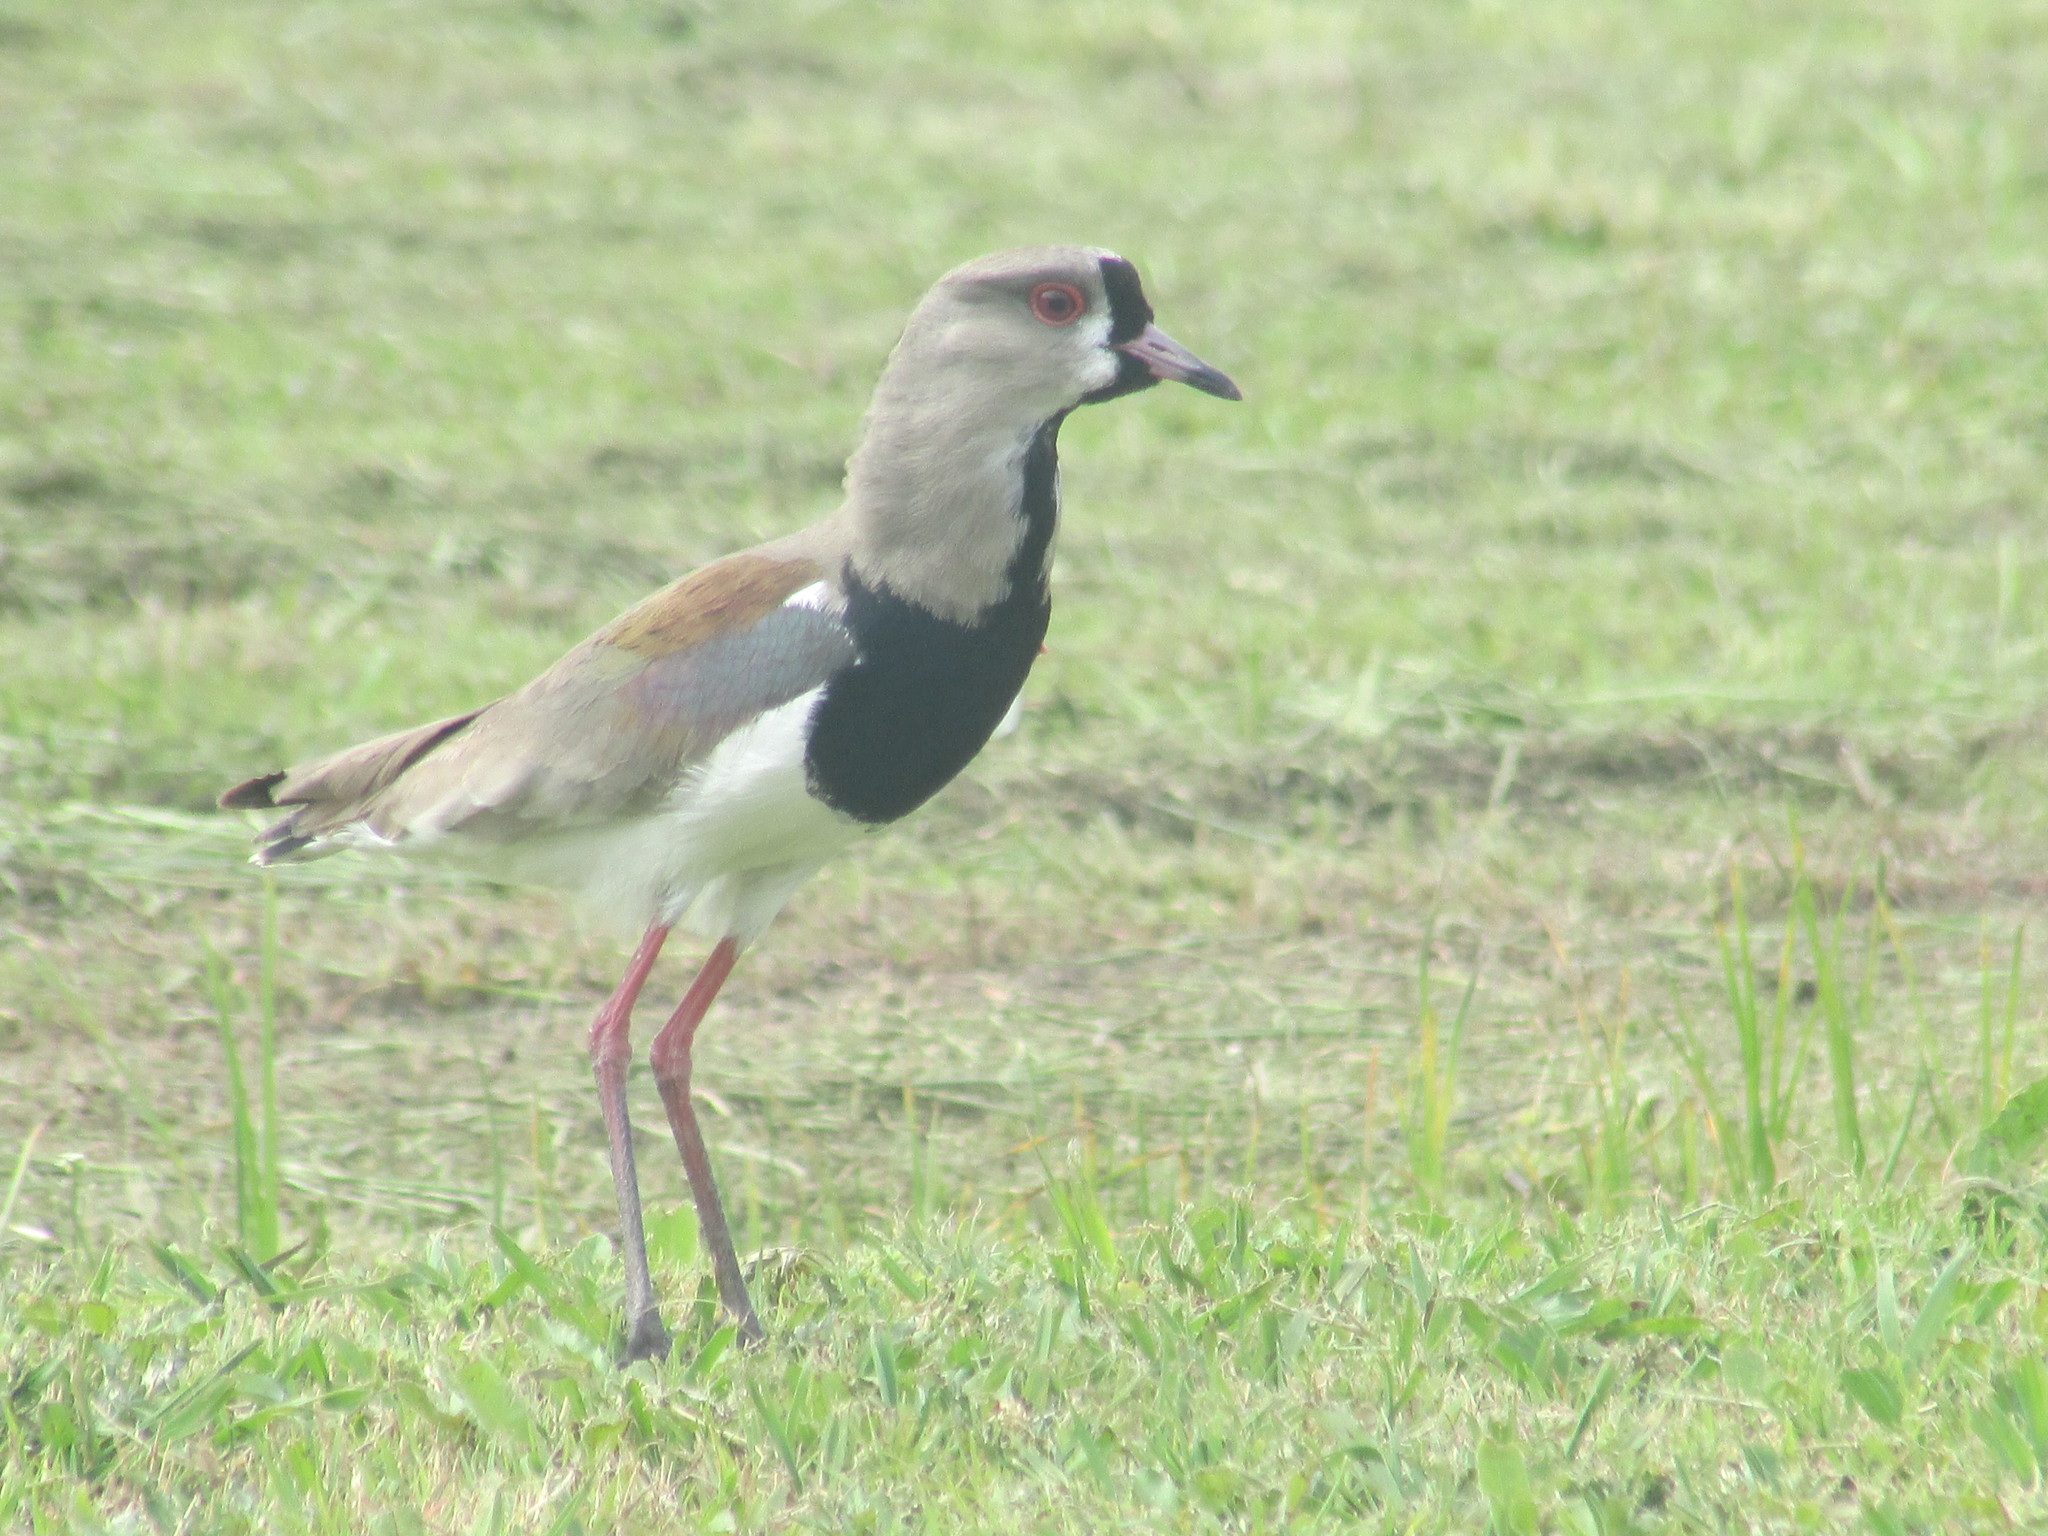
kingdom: Animalia
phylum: Chordata
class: Aves
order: Charadriiformes
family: Charadriidae
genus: Vanellus
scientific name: Vanellus chilensis
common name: Southern lapwing
